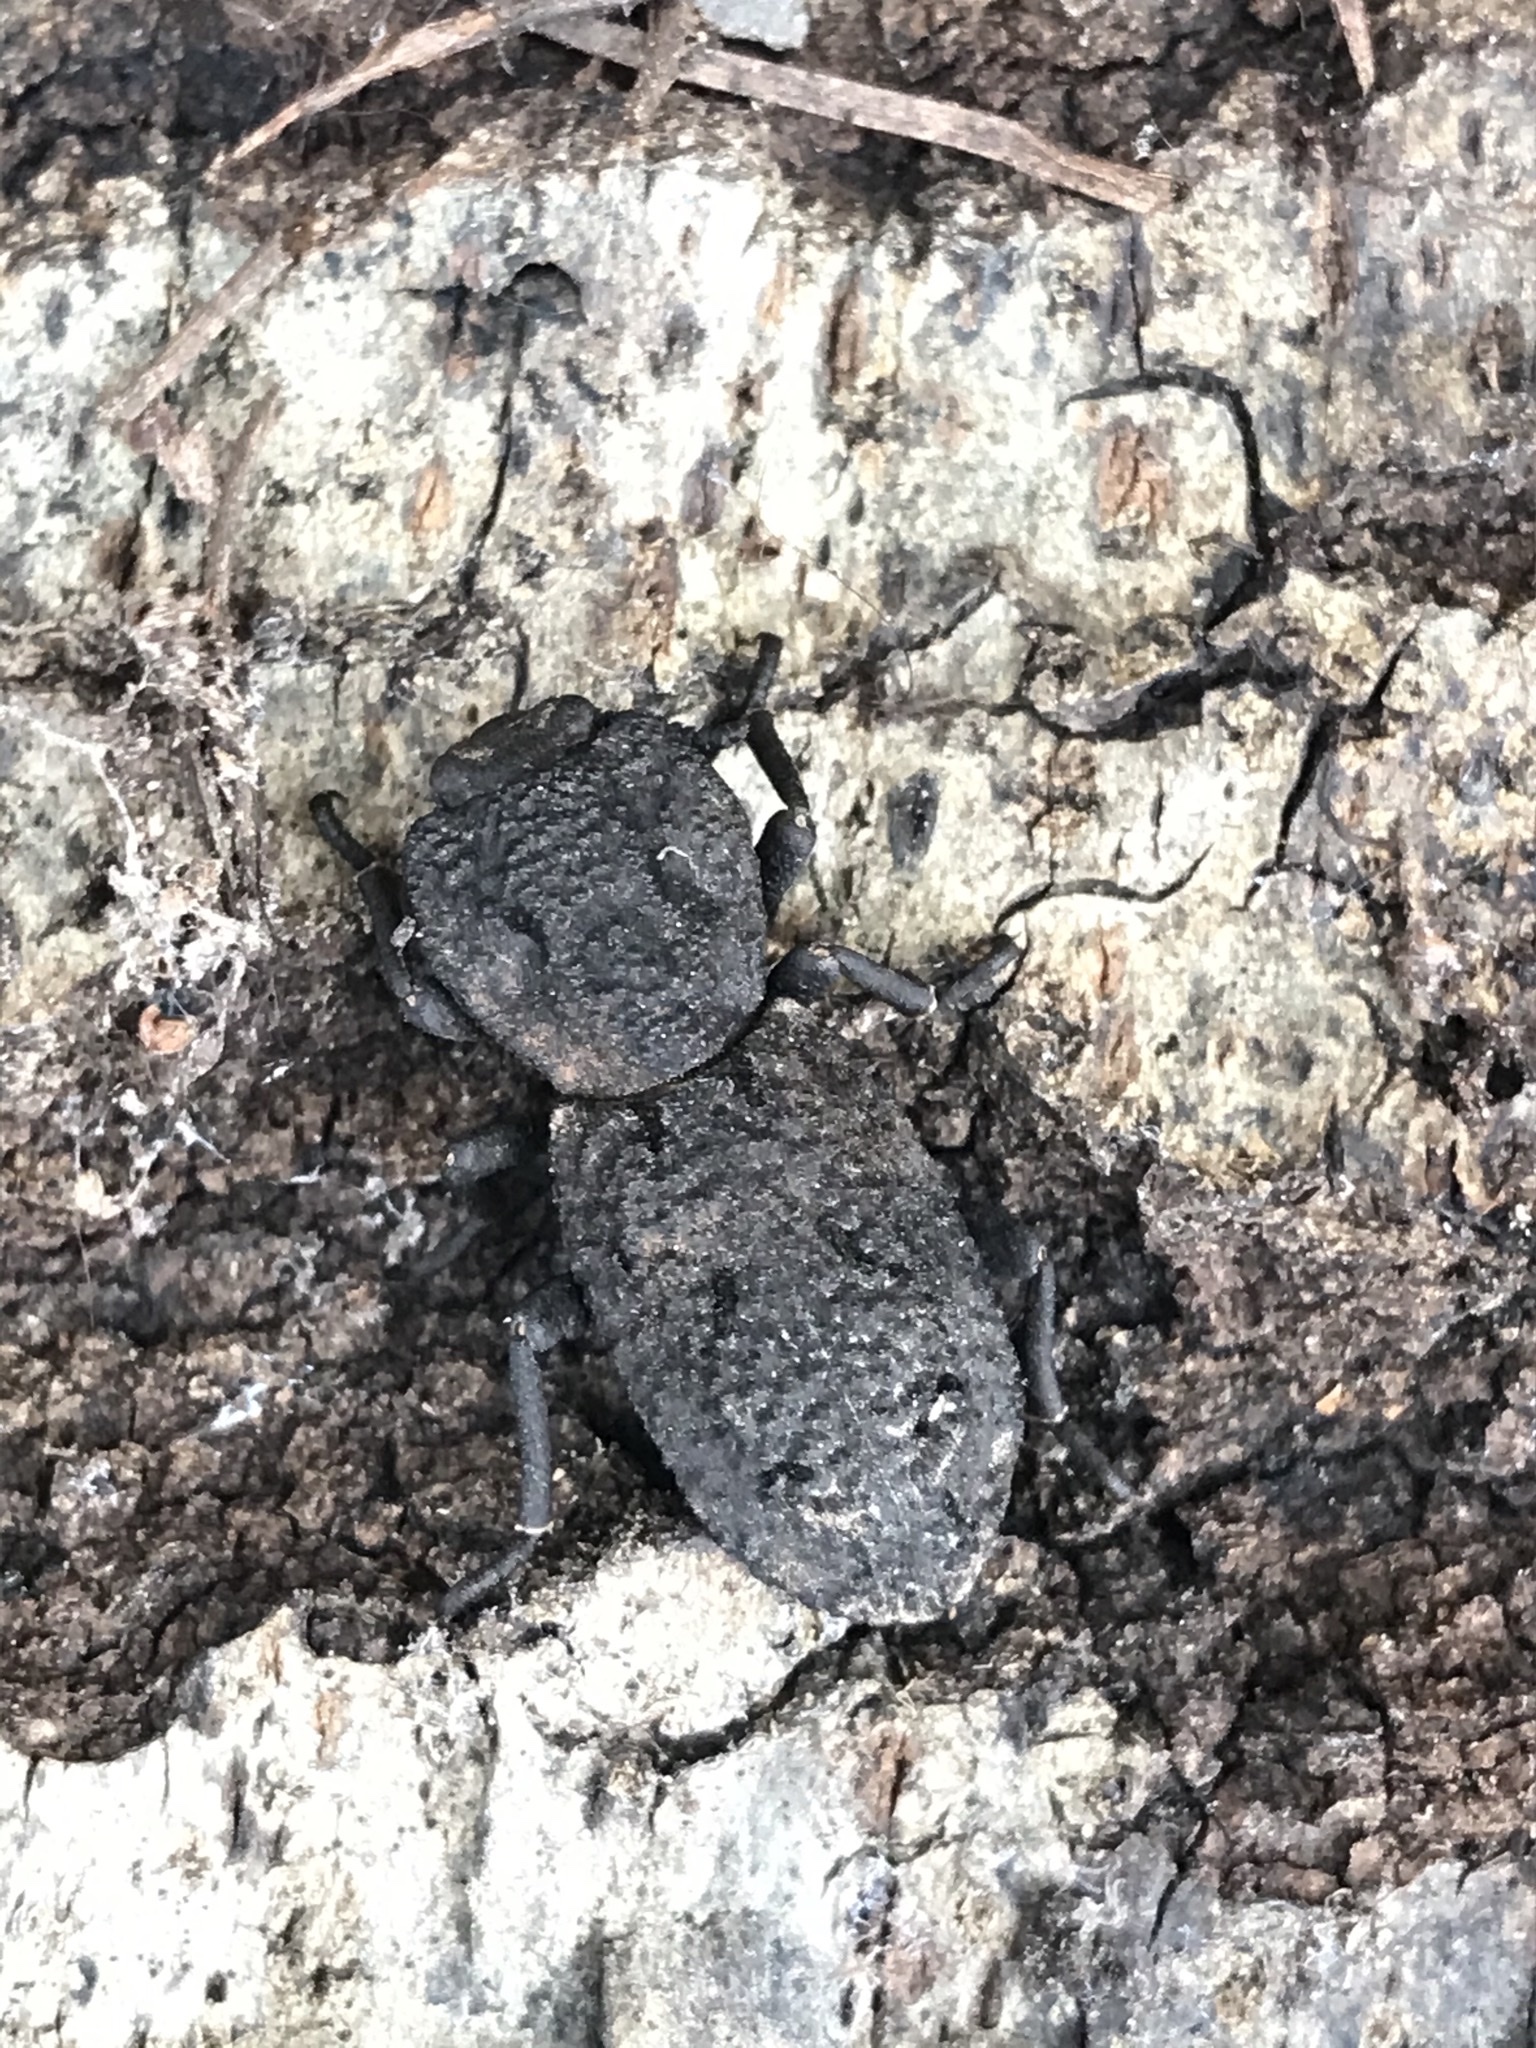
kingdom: Animalia
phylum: Arthropoda
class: Insecta
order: Coleoptera
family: Zopheridae
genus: Phloeodes
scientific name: Phloeodes diabolicus
